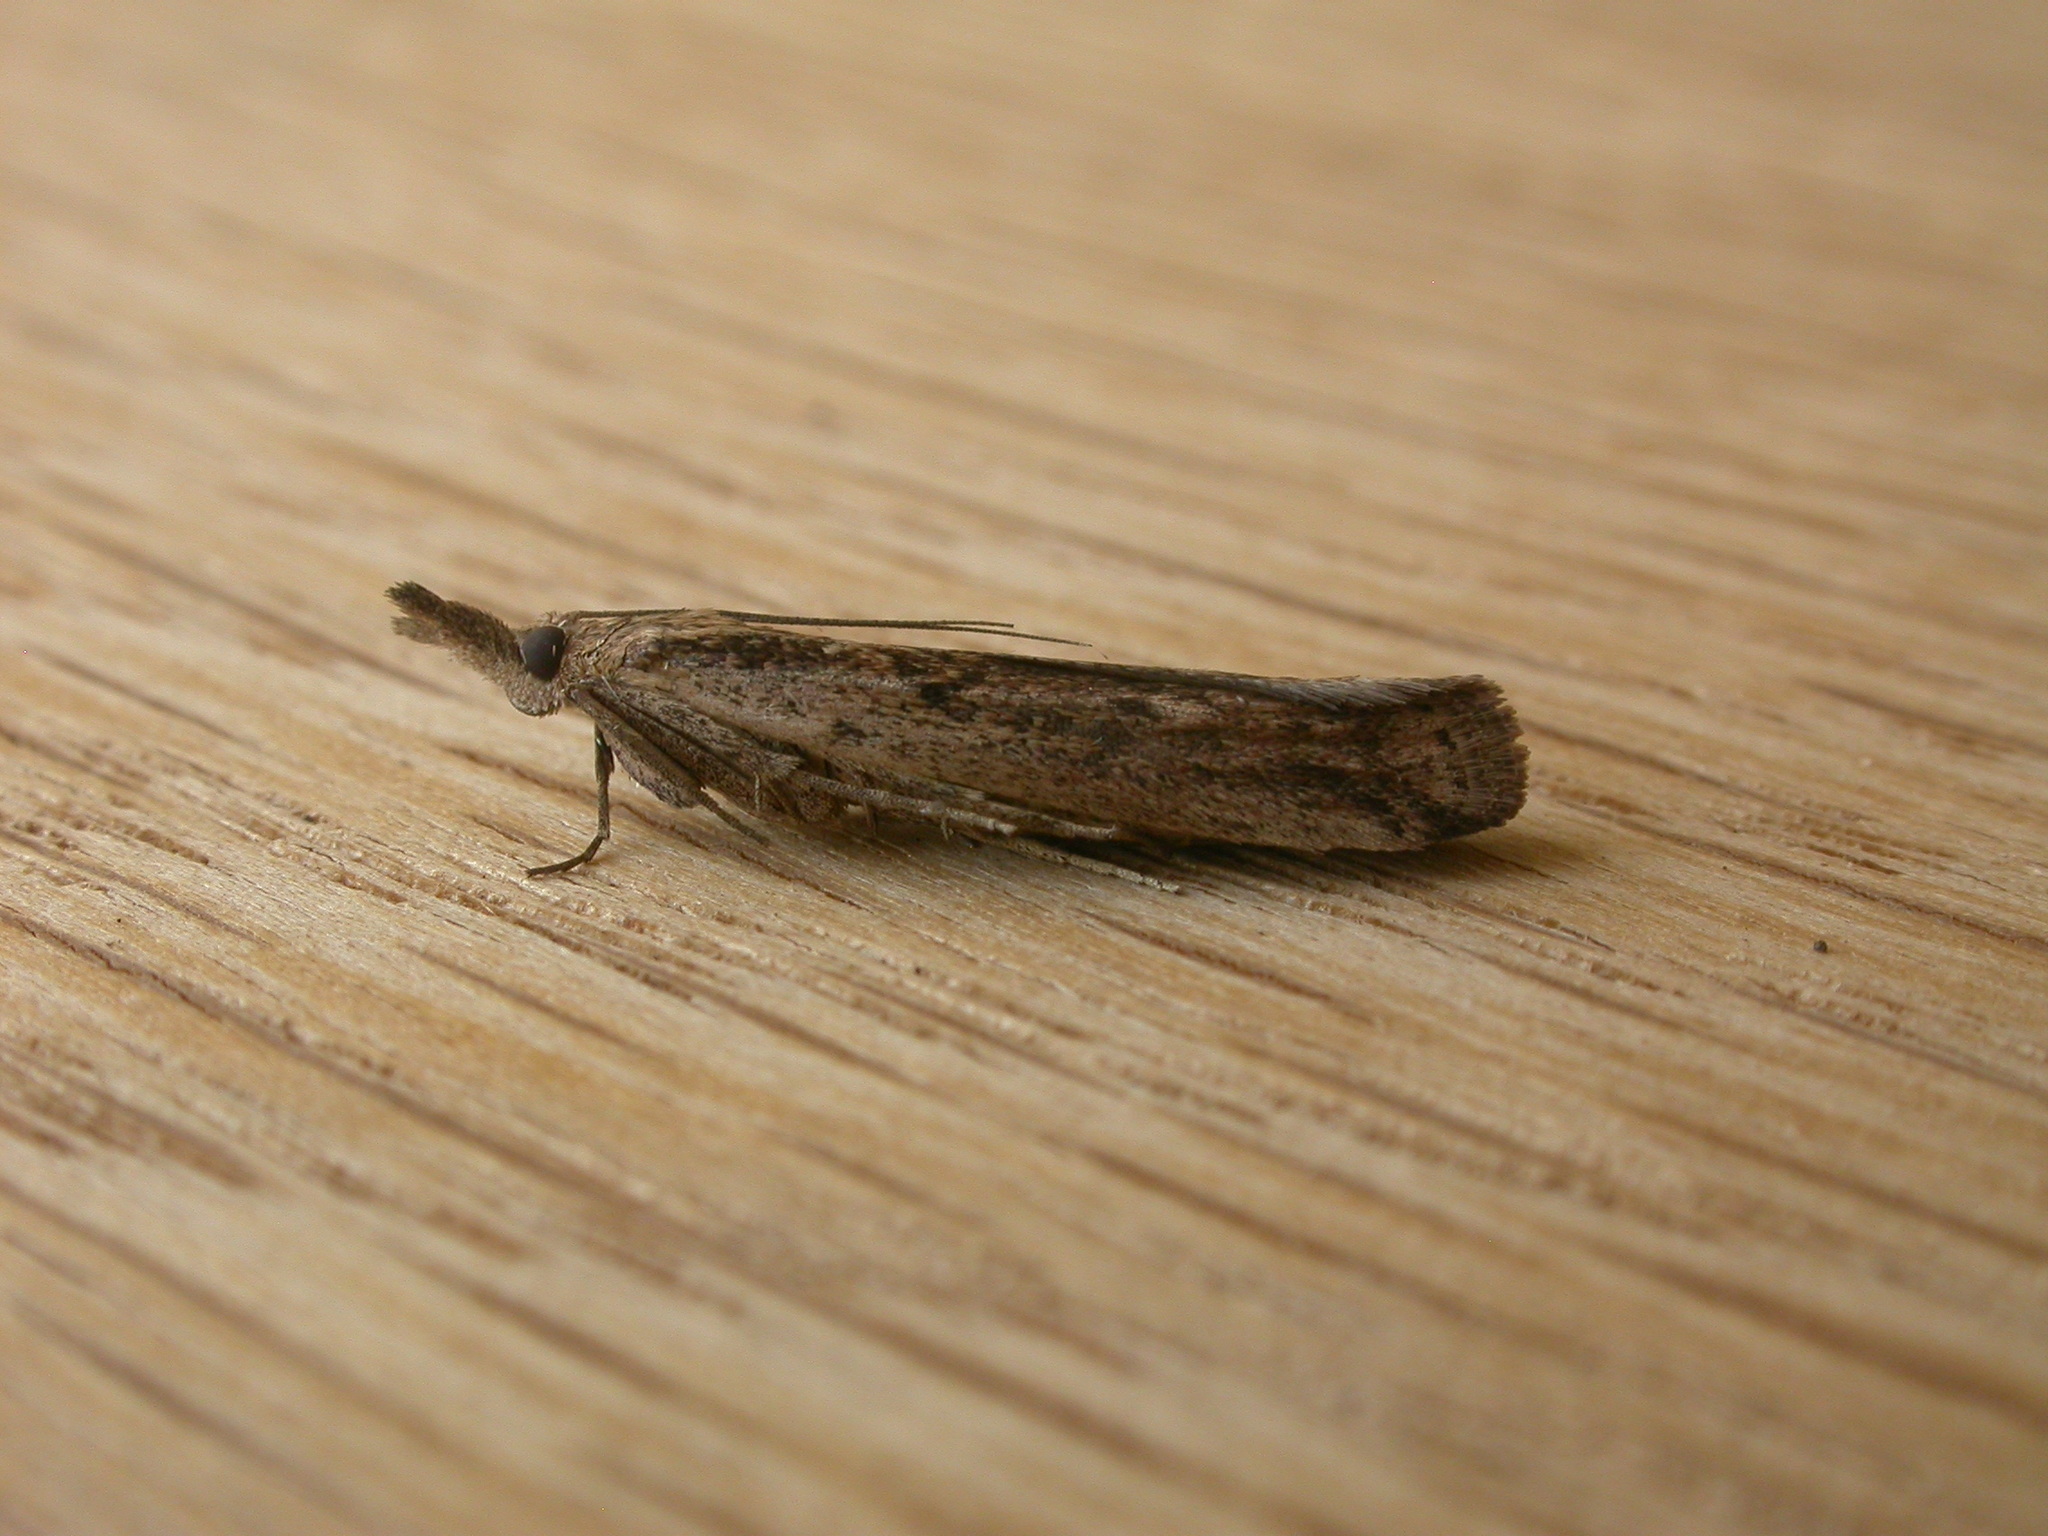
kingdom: Animalia
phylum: Arthropoda
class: Insecta
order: Lepidoptera
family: Pyralidae
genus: Faveria
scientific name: Faveria tritalis
